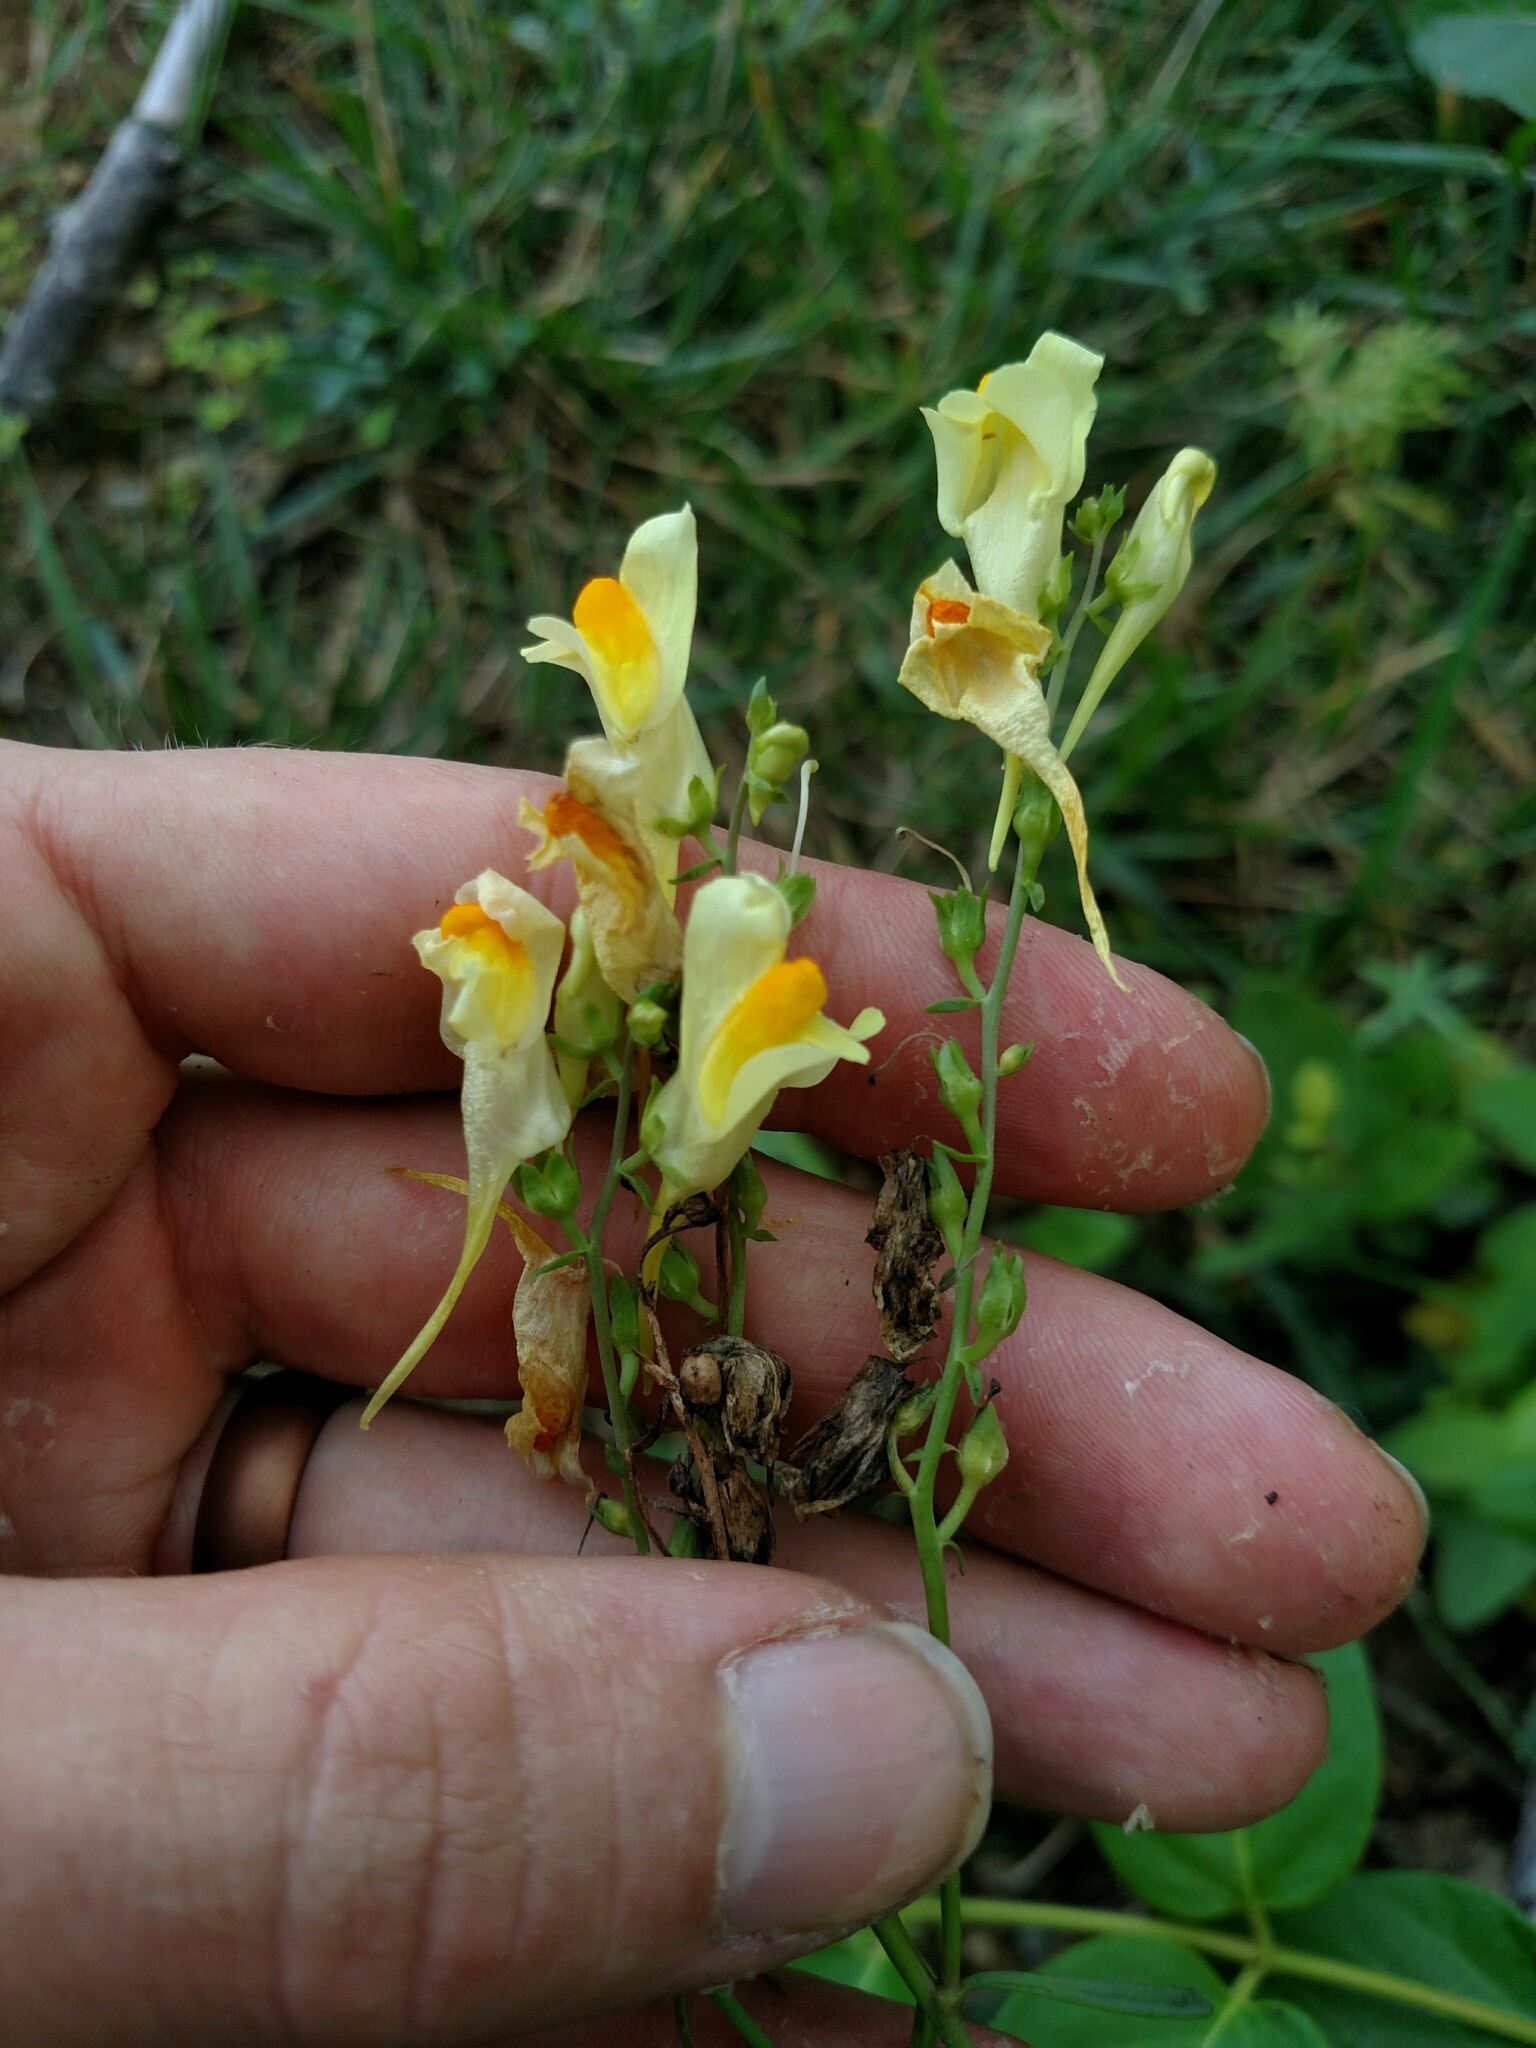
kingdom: Plantae
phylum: Tracheophyta
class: Magnoliopsida
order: Lamiales
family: Plantaginaceae
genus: Linaria
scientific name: Linaria vulgaris
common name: Butter and eggs
